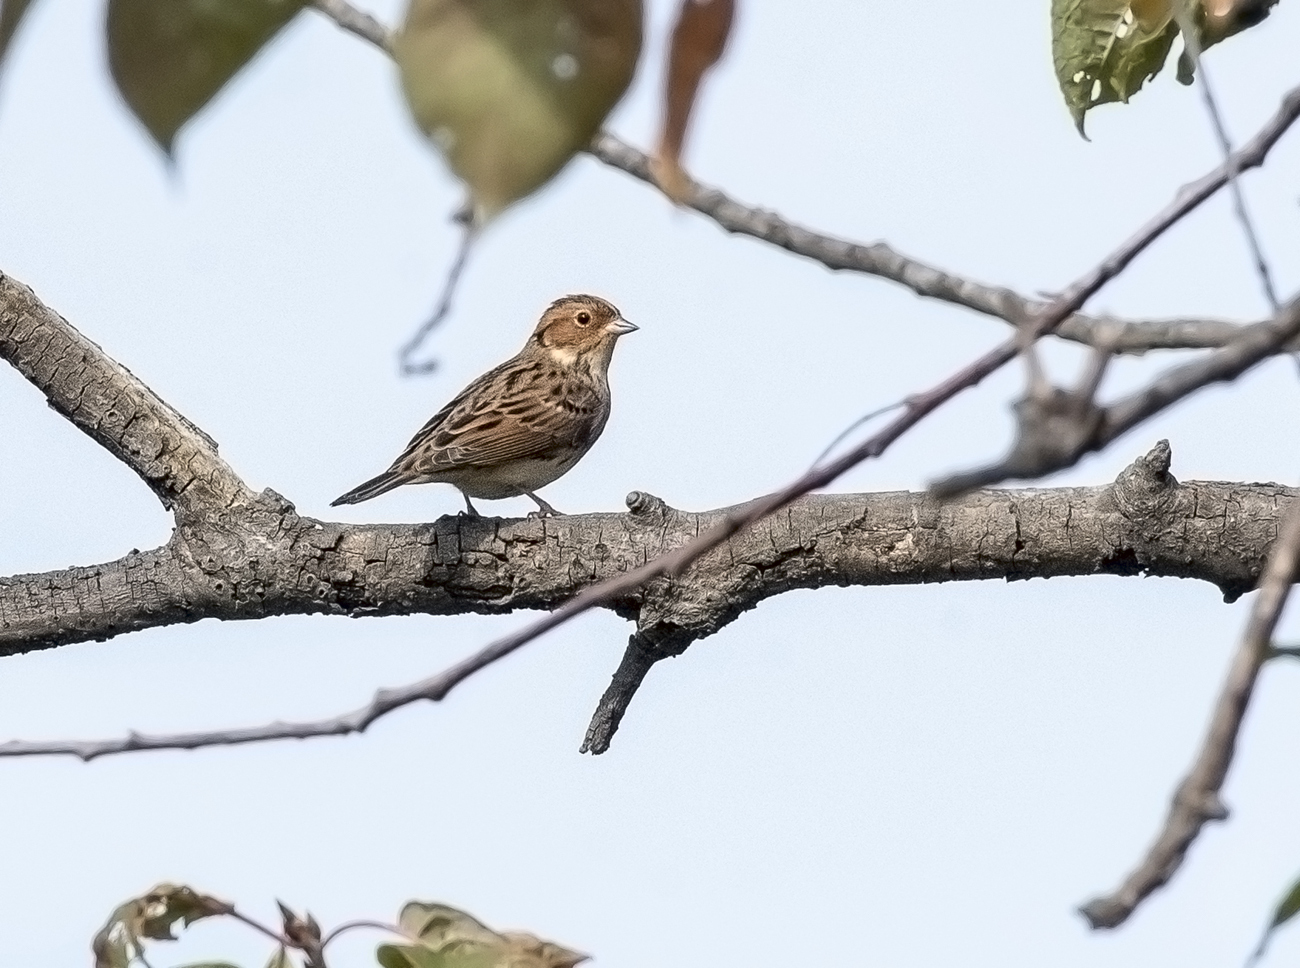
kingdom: Animalia
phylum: Chordata
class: Aves
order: Passeriformes
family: Emberizidae
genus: Emberiza
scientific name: Emberiza pusilla
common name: Little bunting
